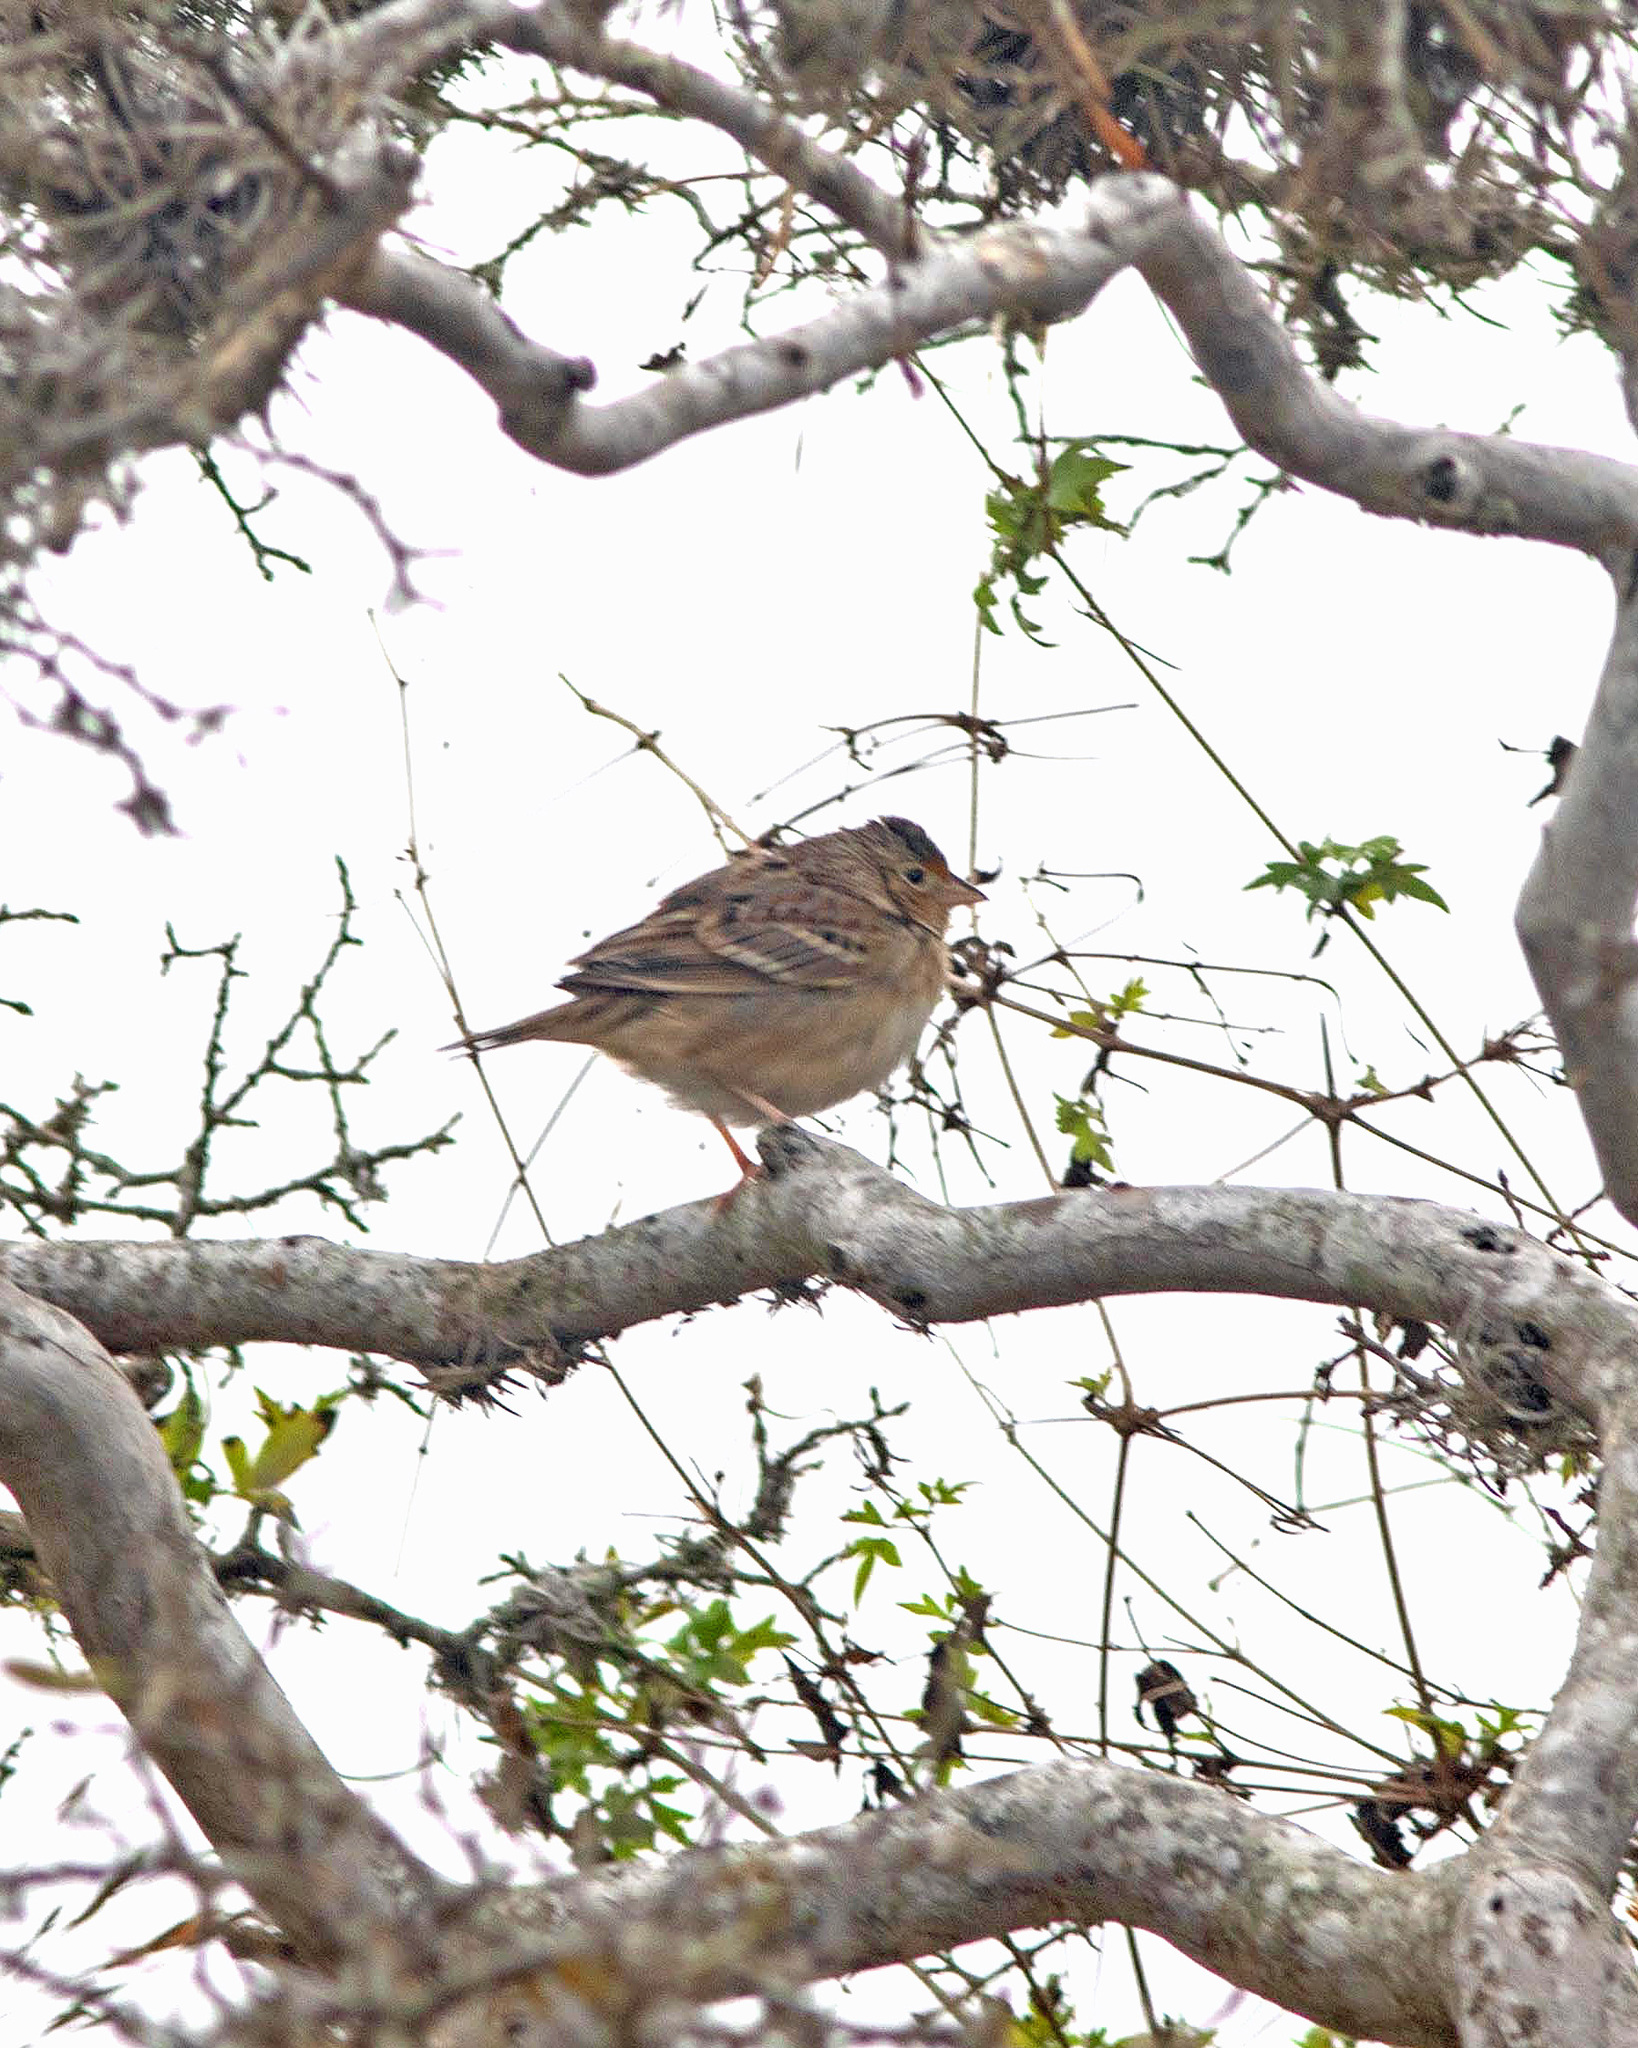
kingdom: Animalia
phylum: Chordata
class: Aves
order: Passeriformes
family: Passerellidae
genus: Ammodramus
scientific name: Ammodramus savannarum
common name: Grasshopper sparrow
